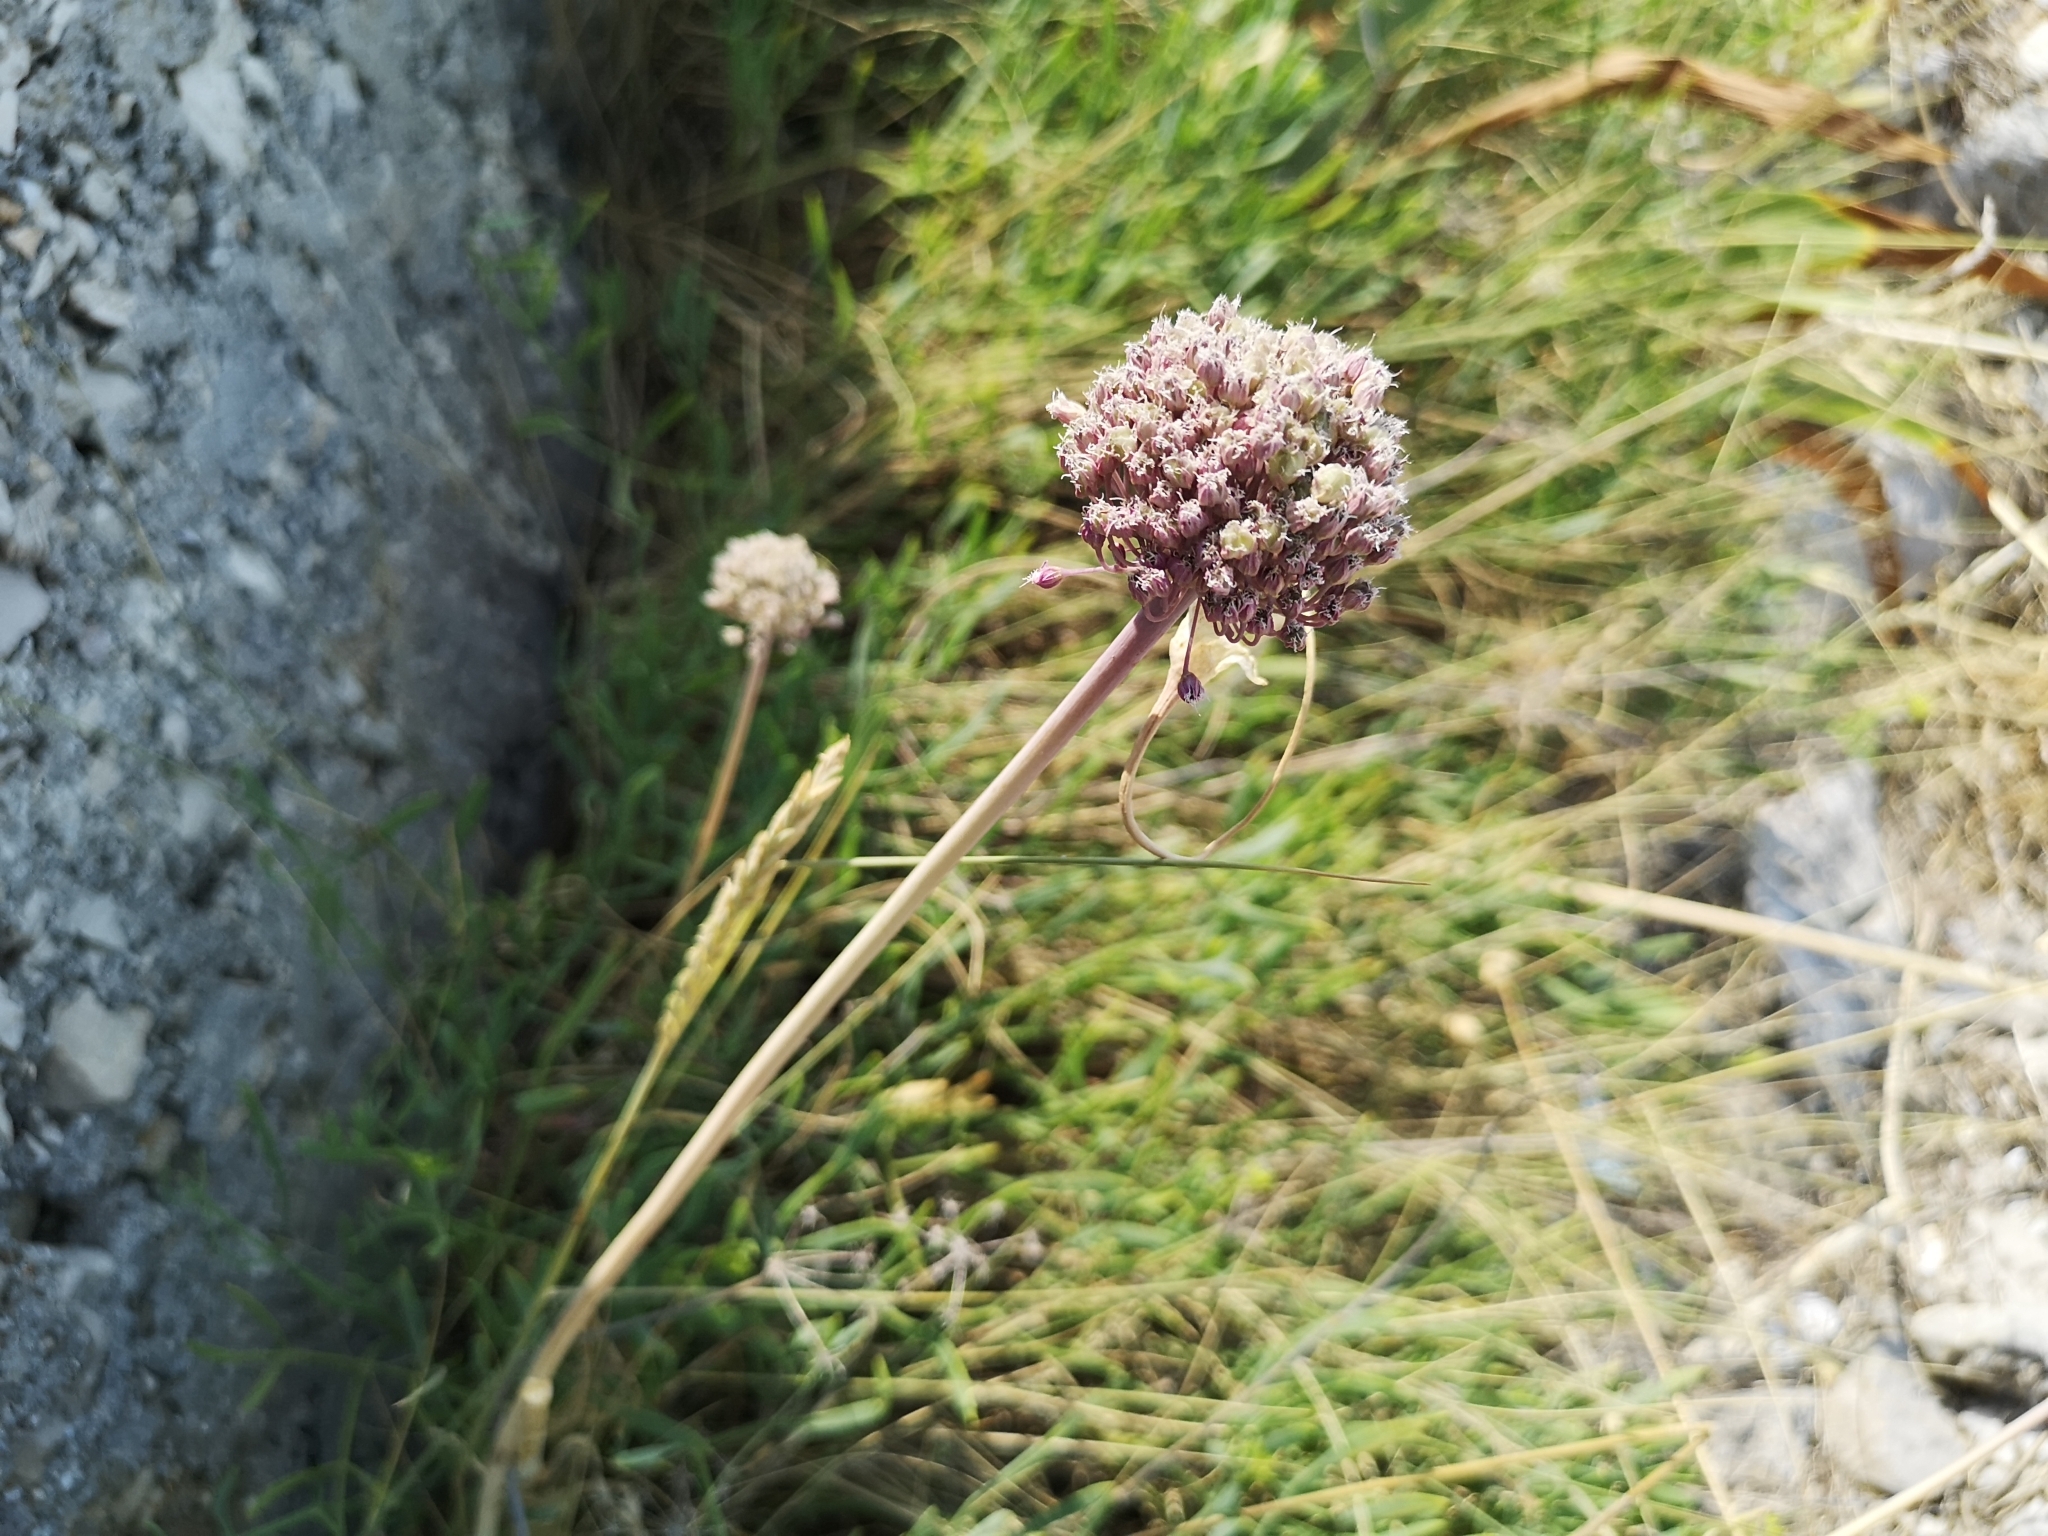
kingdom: Plantae
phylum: Tracheophyta
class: Liliopsida
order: Asparagales
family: Amaryllidaceae
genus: Allium
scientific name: Allium commutatum
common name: Sea garlic
